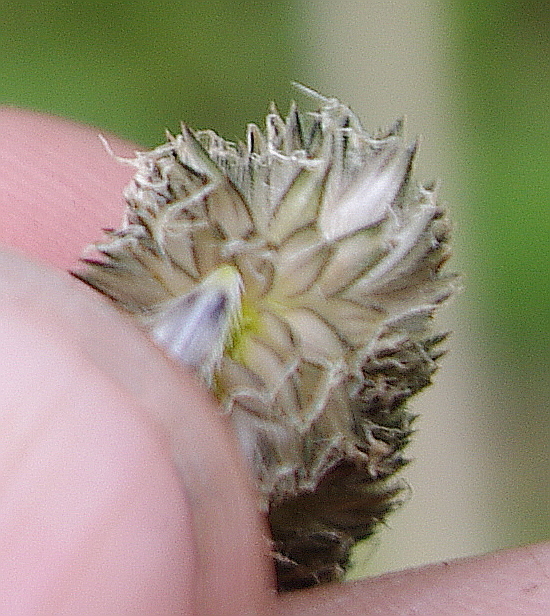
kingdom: Plantae
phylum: Tracheophyta
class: Liliopsida
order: Poales
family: Poaceae
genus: Alopecurus
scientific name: Alopecurus arundinaceus
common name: Creeping meadow foxtail
